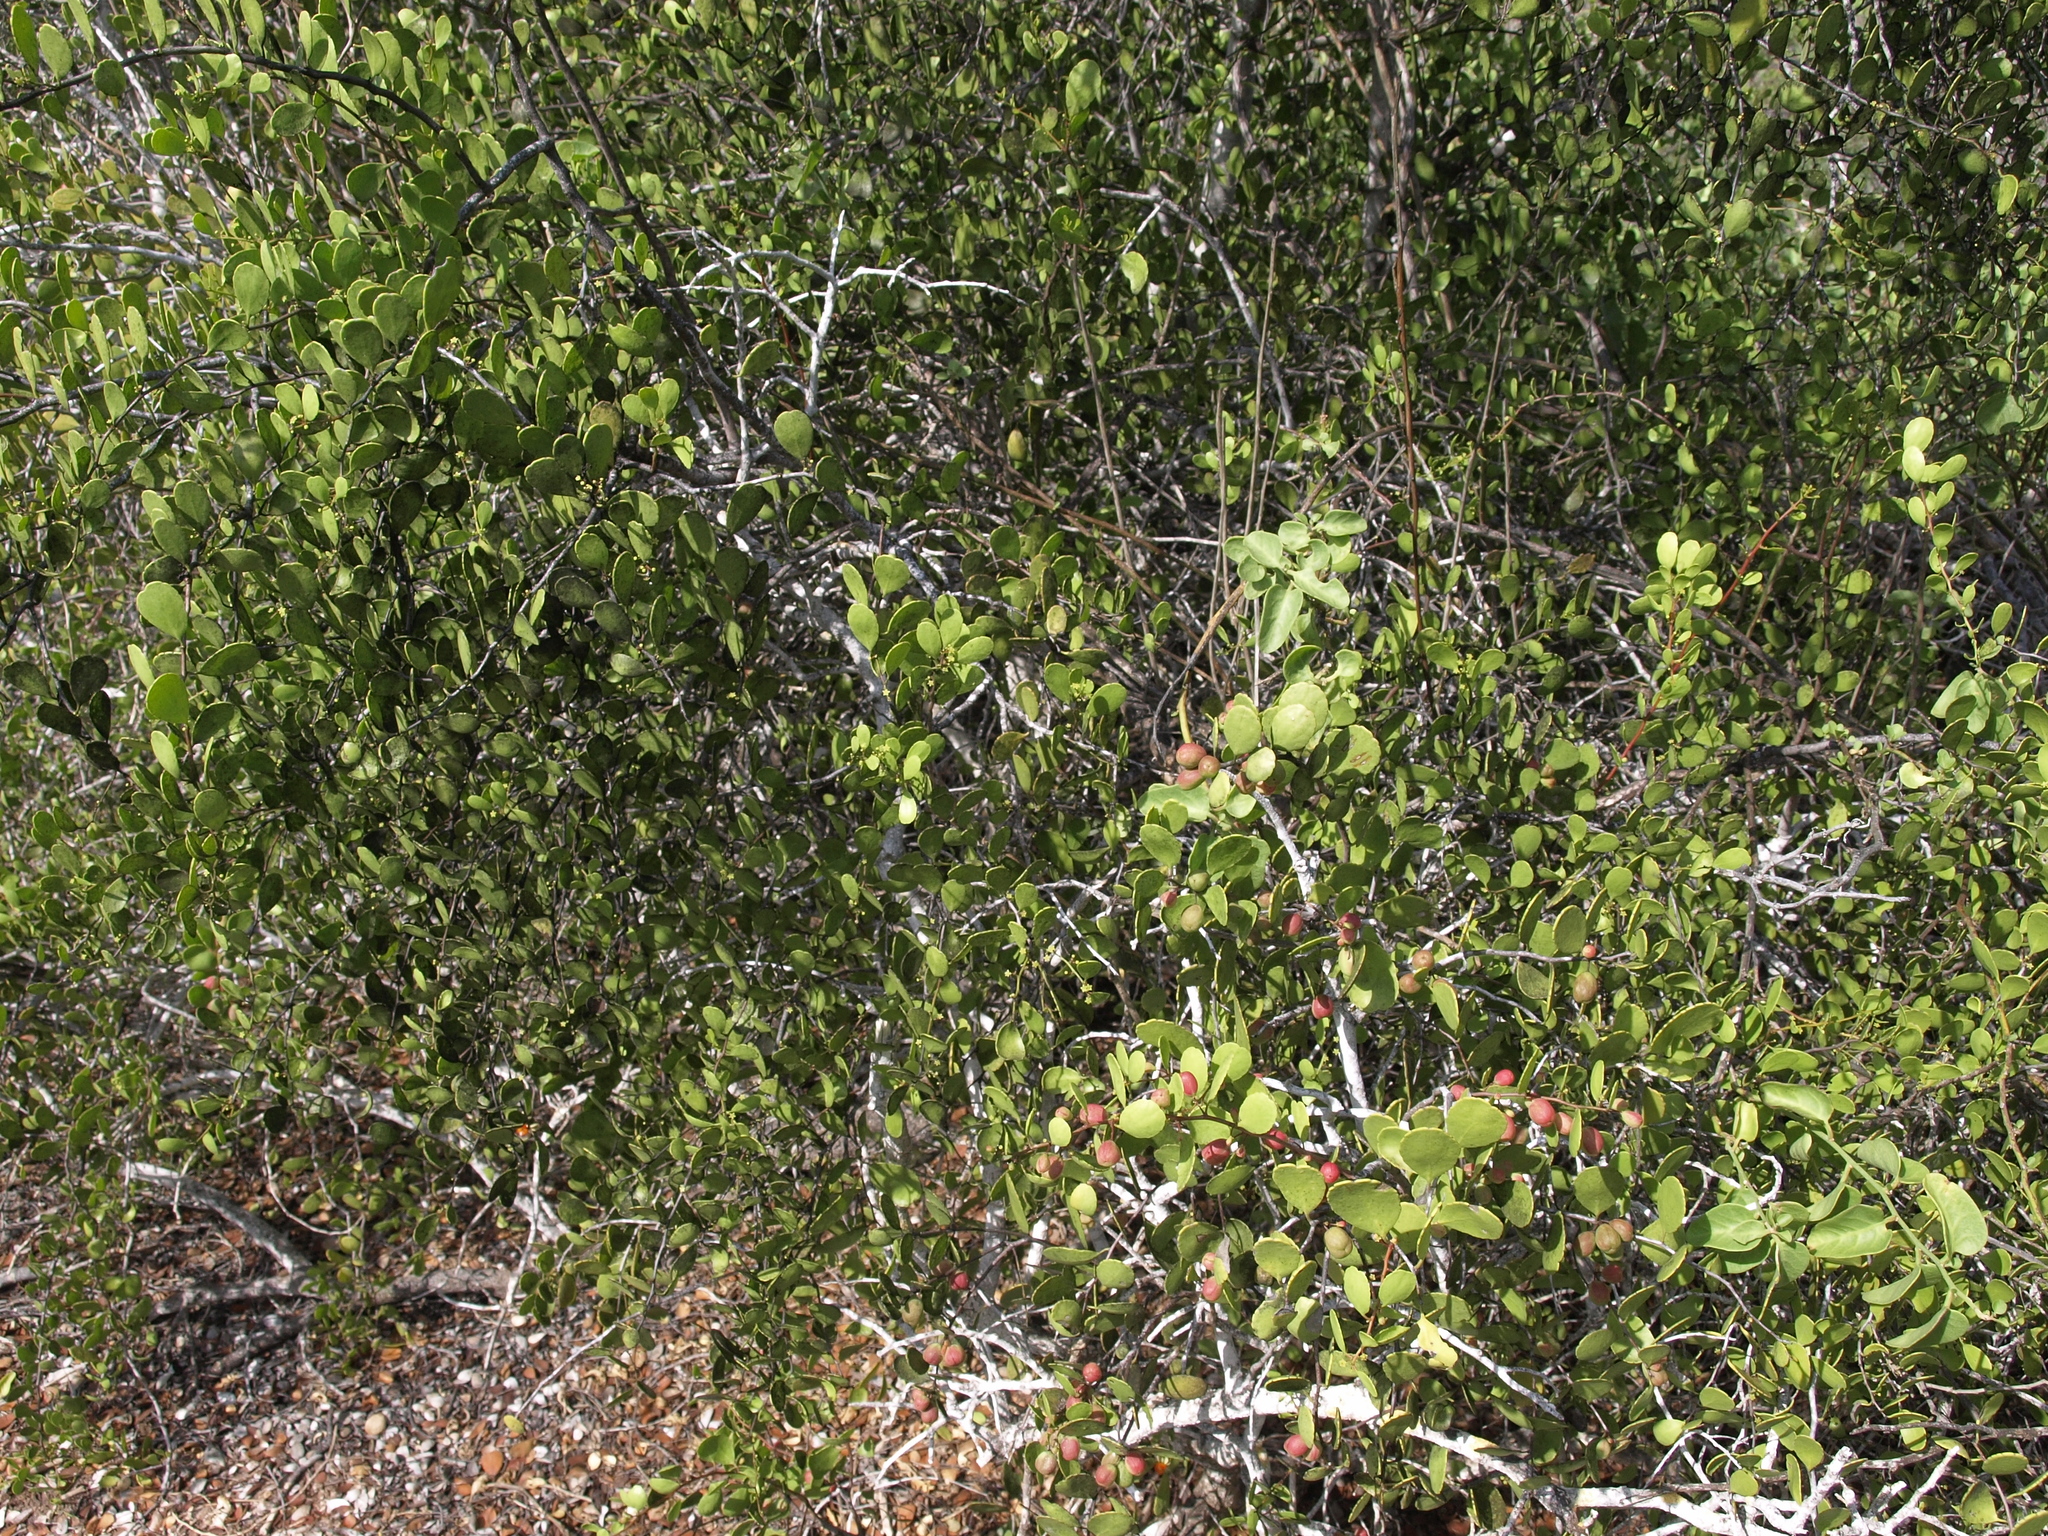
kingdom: Plantae
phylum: Tracheophyta
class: Magnoliopsida
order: Celastrales
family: Celastraceae
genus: Tricerma
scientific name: Tricerma octogonum
